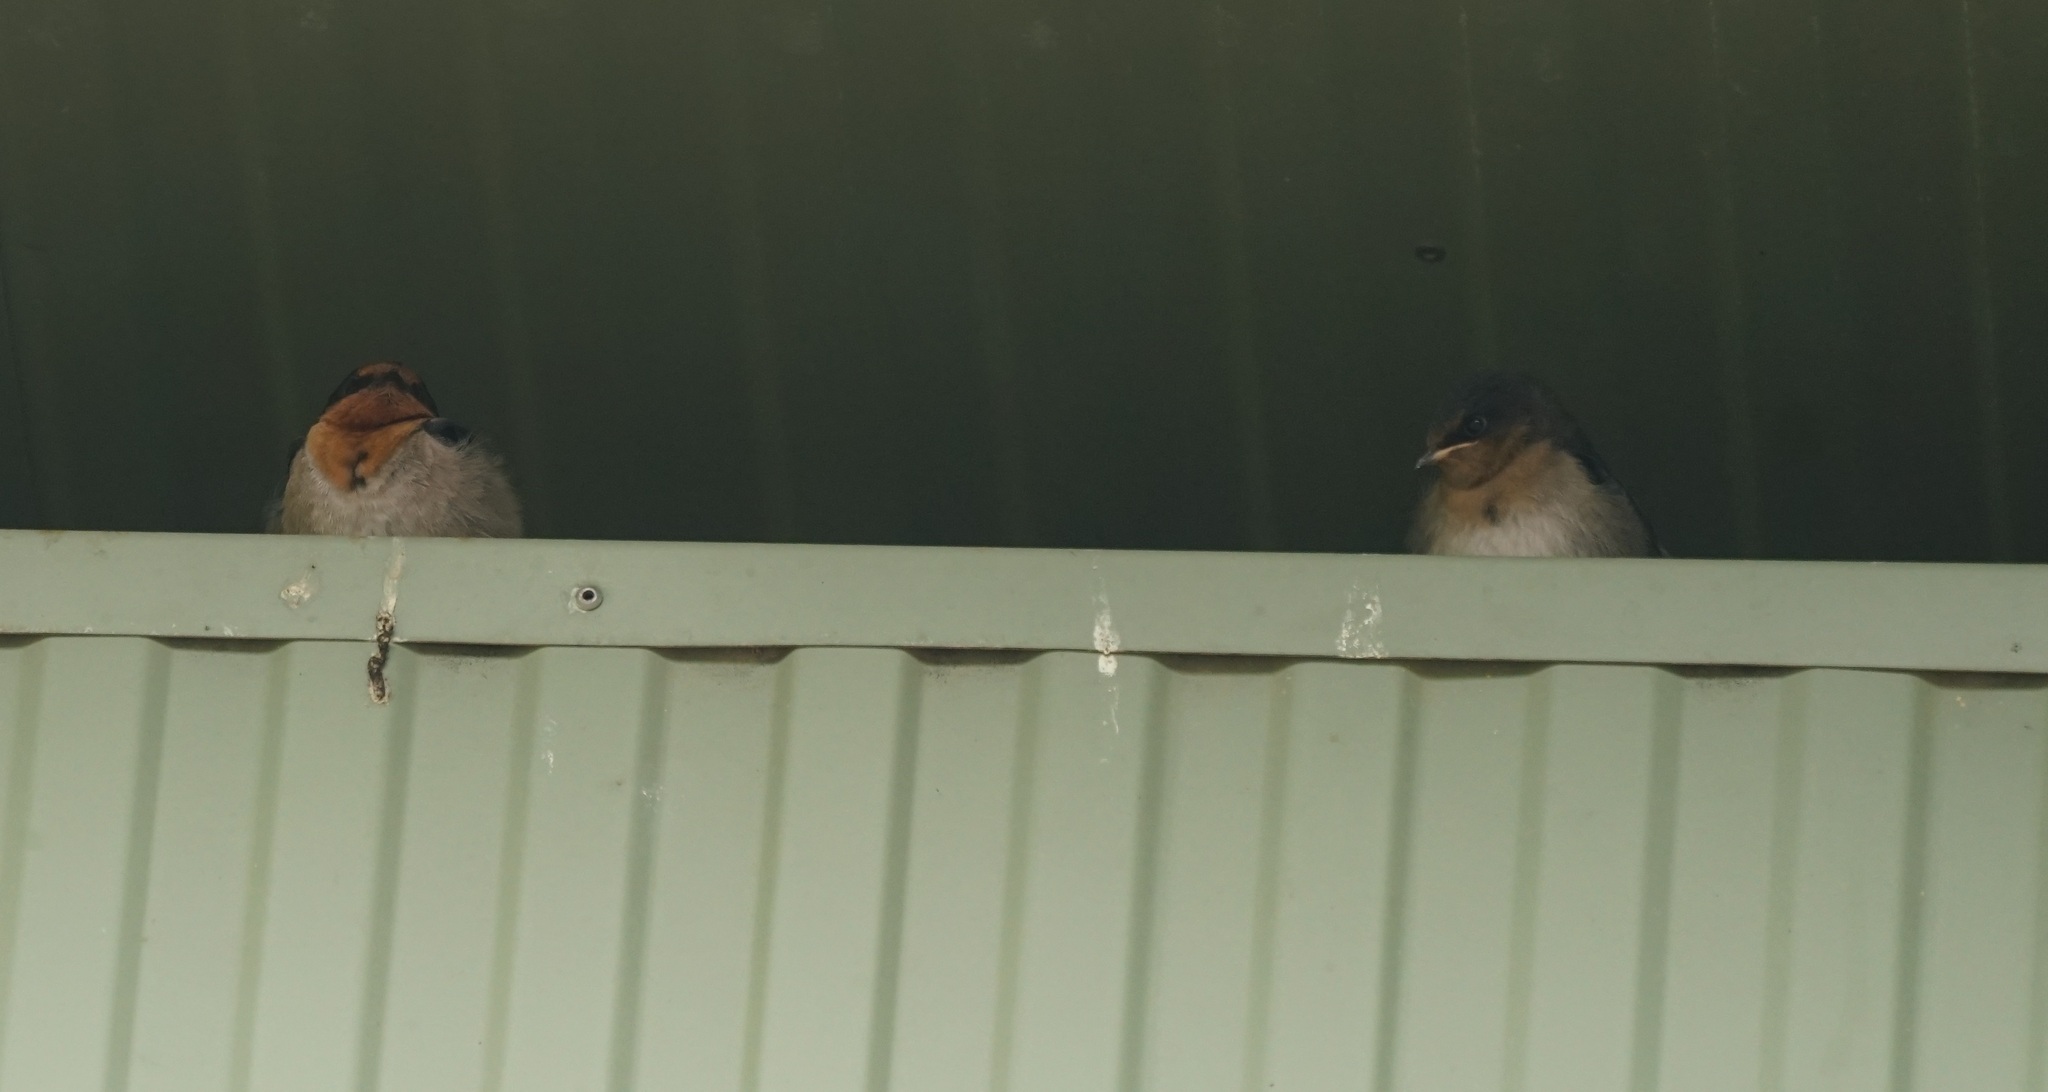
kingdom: Animalia
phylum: Chordata
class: Aves
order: Passeriformes
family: Hirundinidae
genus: Hirundo
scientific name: Hirundo neoxena
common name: Welcome swallow
